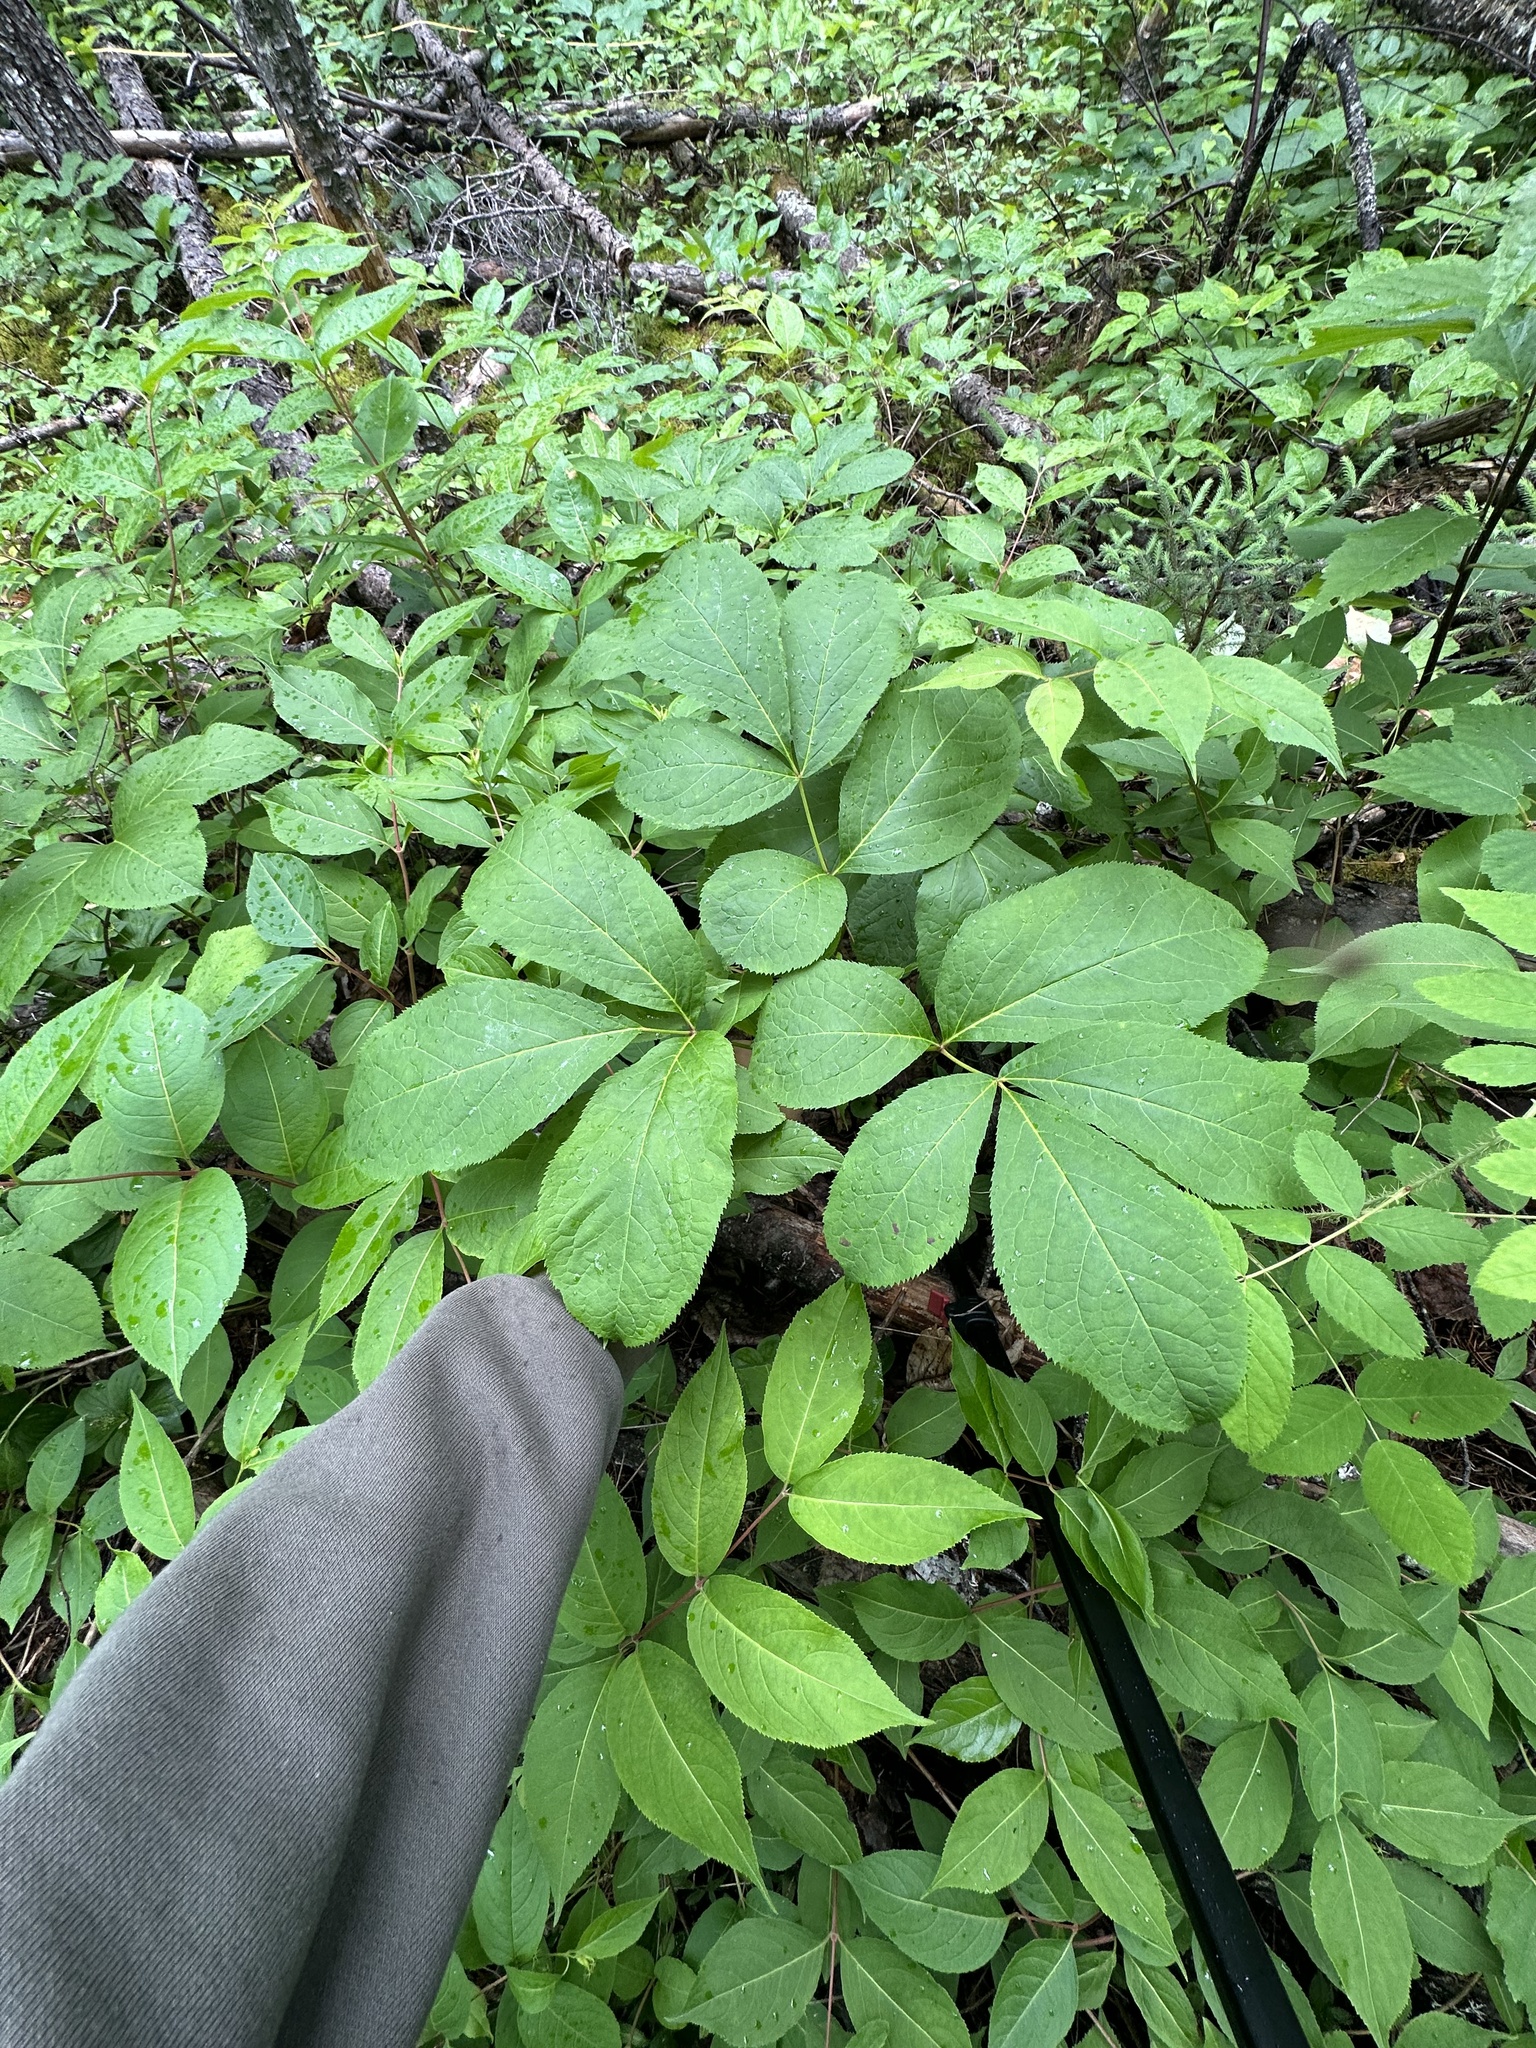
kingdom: Plantae
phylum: Tracheophyta
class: Magnoliopsida
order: Apiales
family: Araliaceae
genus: Aralia
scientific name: Aralia nudicaulis
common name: Wild sarsaparilla
